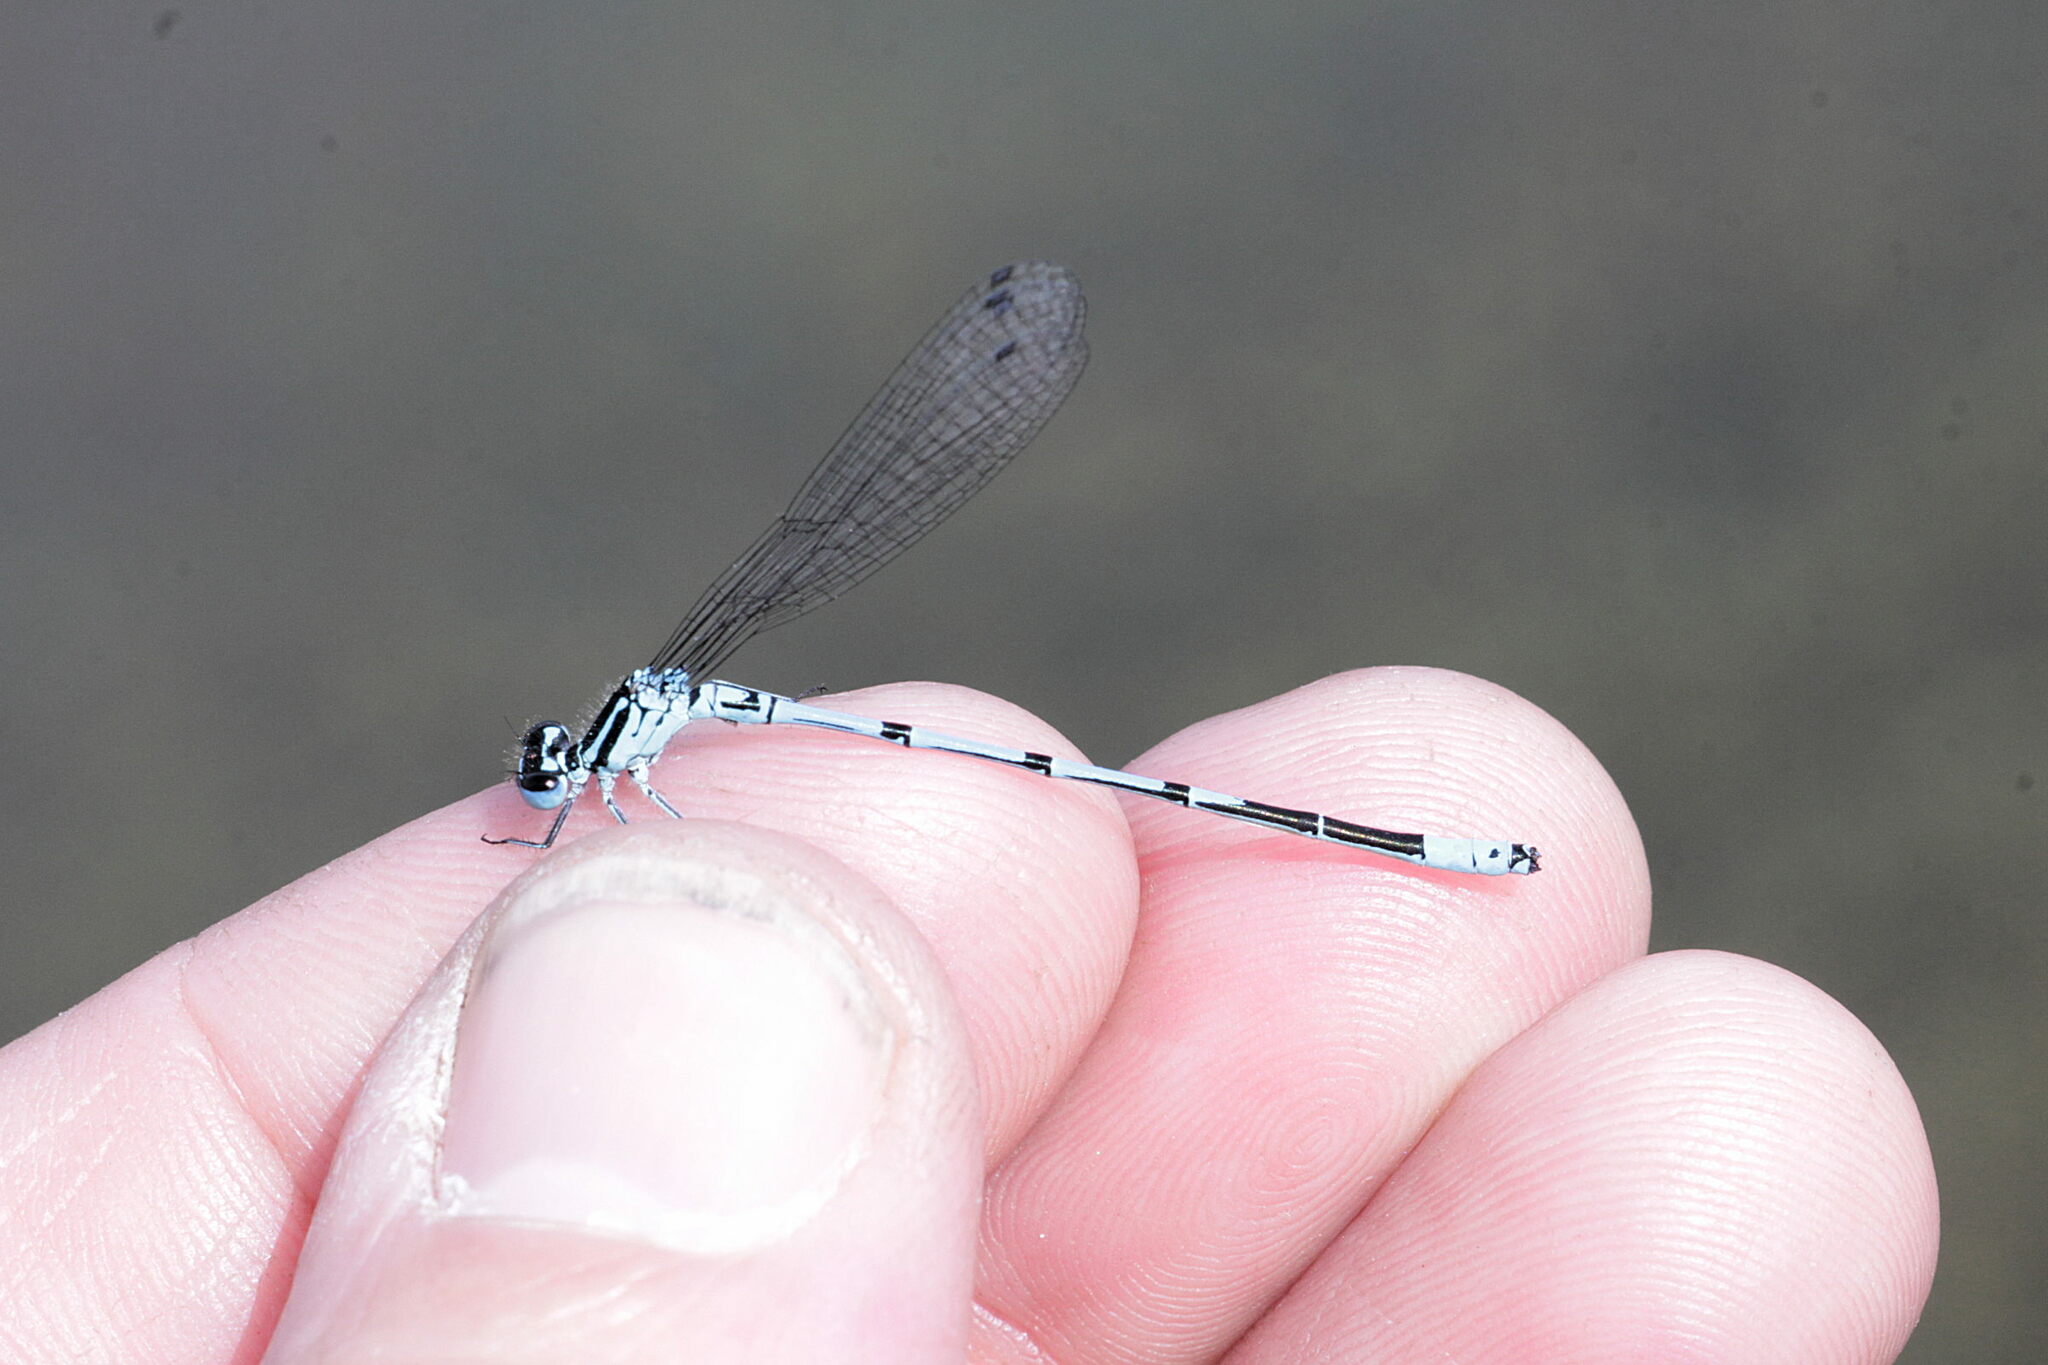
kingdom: Animalia
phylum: Arthropoda
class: Insecta
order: Odonata
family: Coenagrionidae
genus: Coenagrion
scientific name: Coenagrion puella
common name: Azure damselfly
